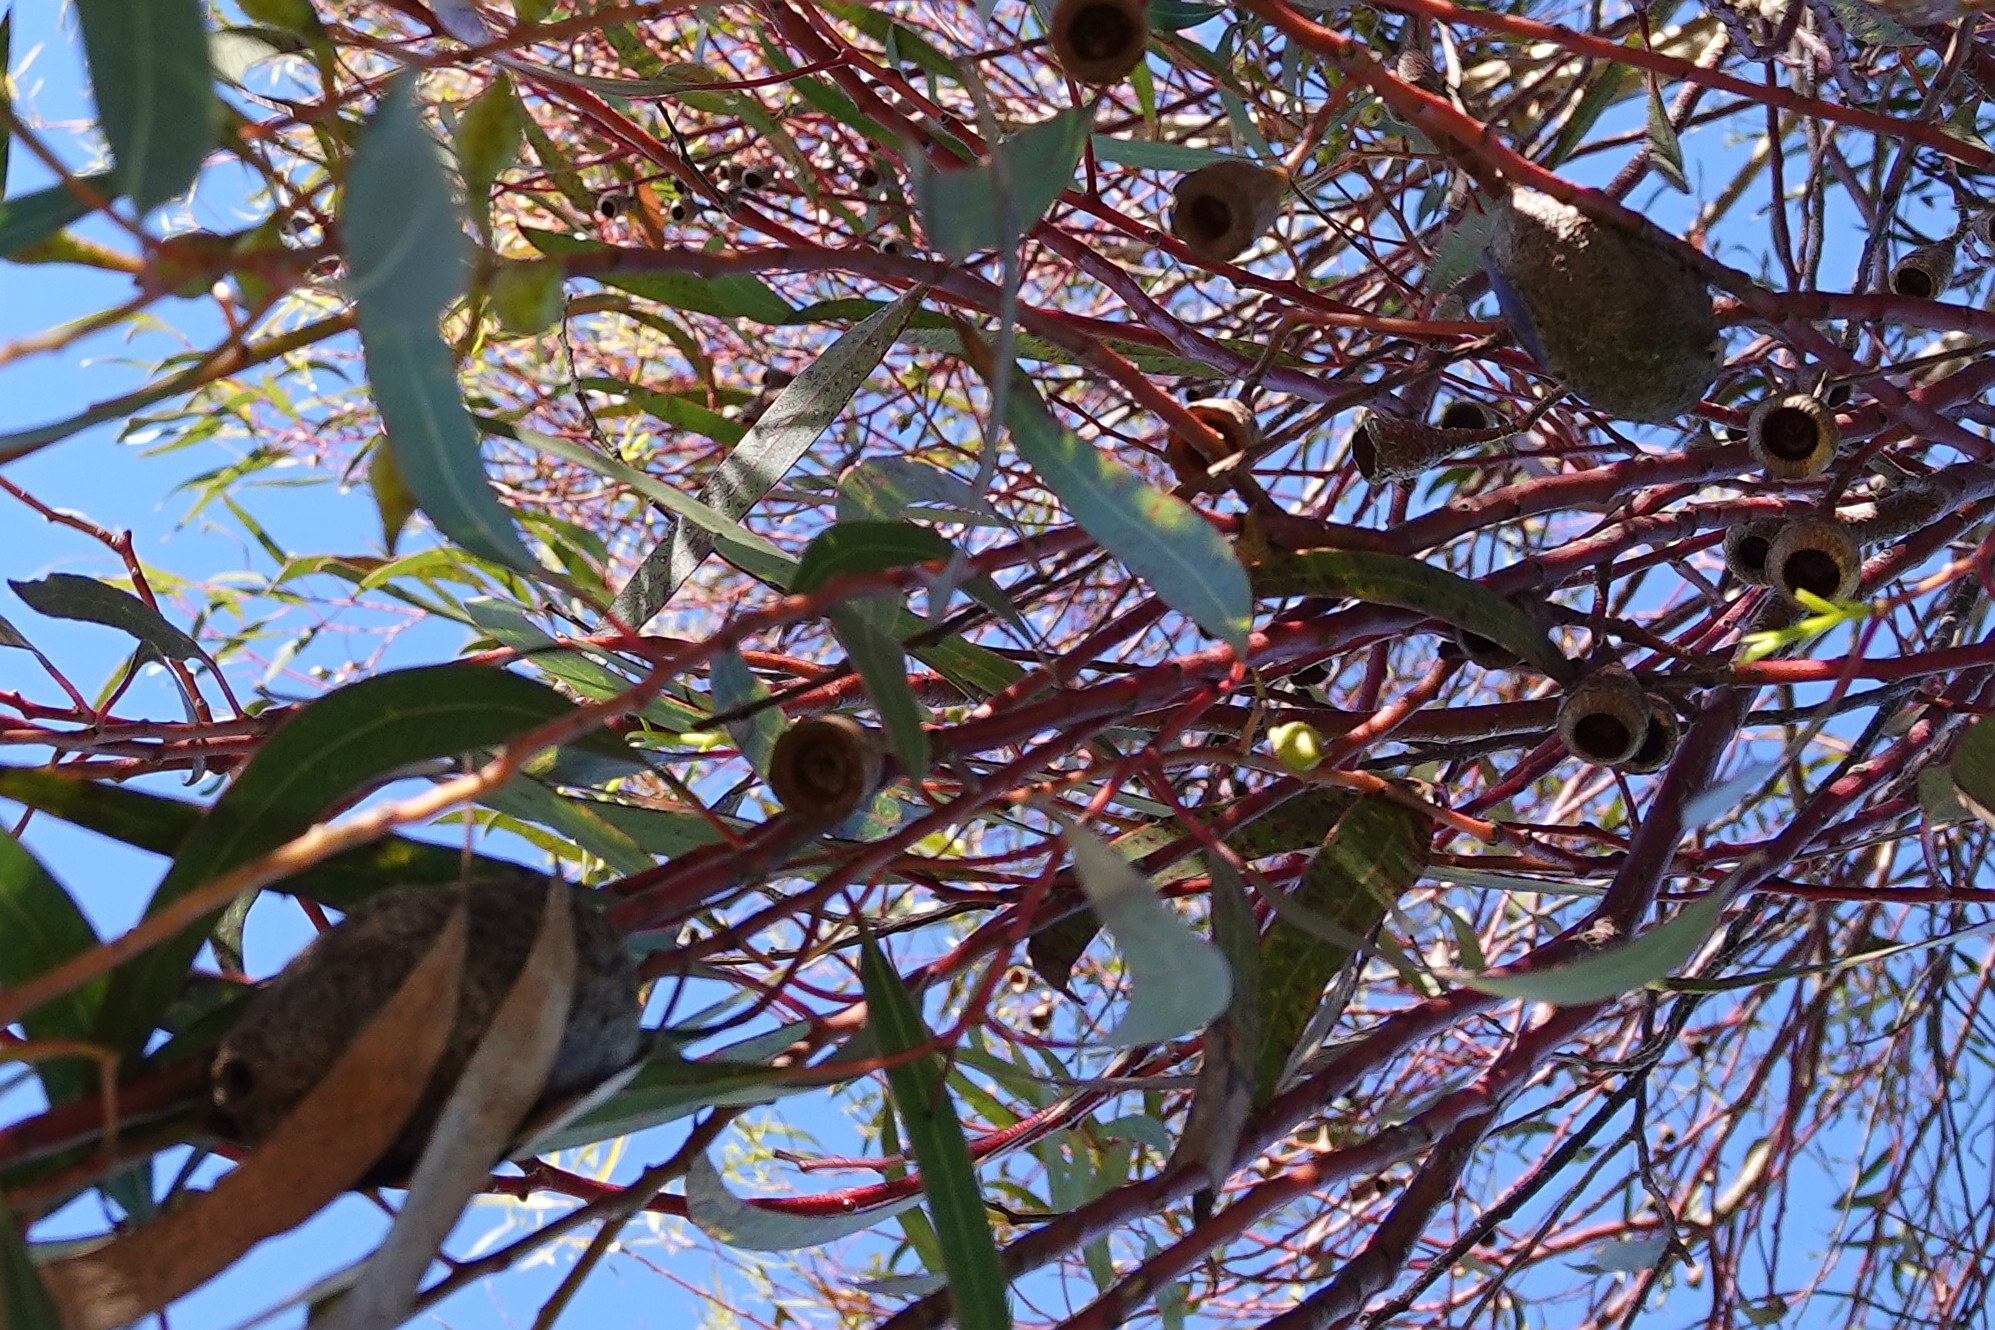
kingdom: Animalia
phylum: Arthropoda
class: Insecta
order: Lepidoptera
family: Saturniidae
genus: Opodiphthera
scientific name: Opodiphthera
